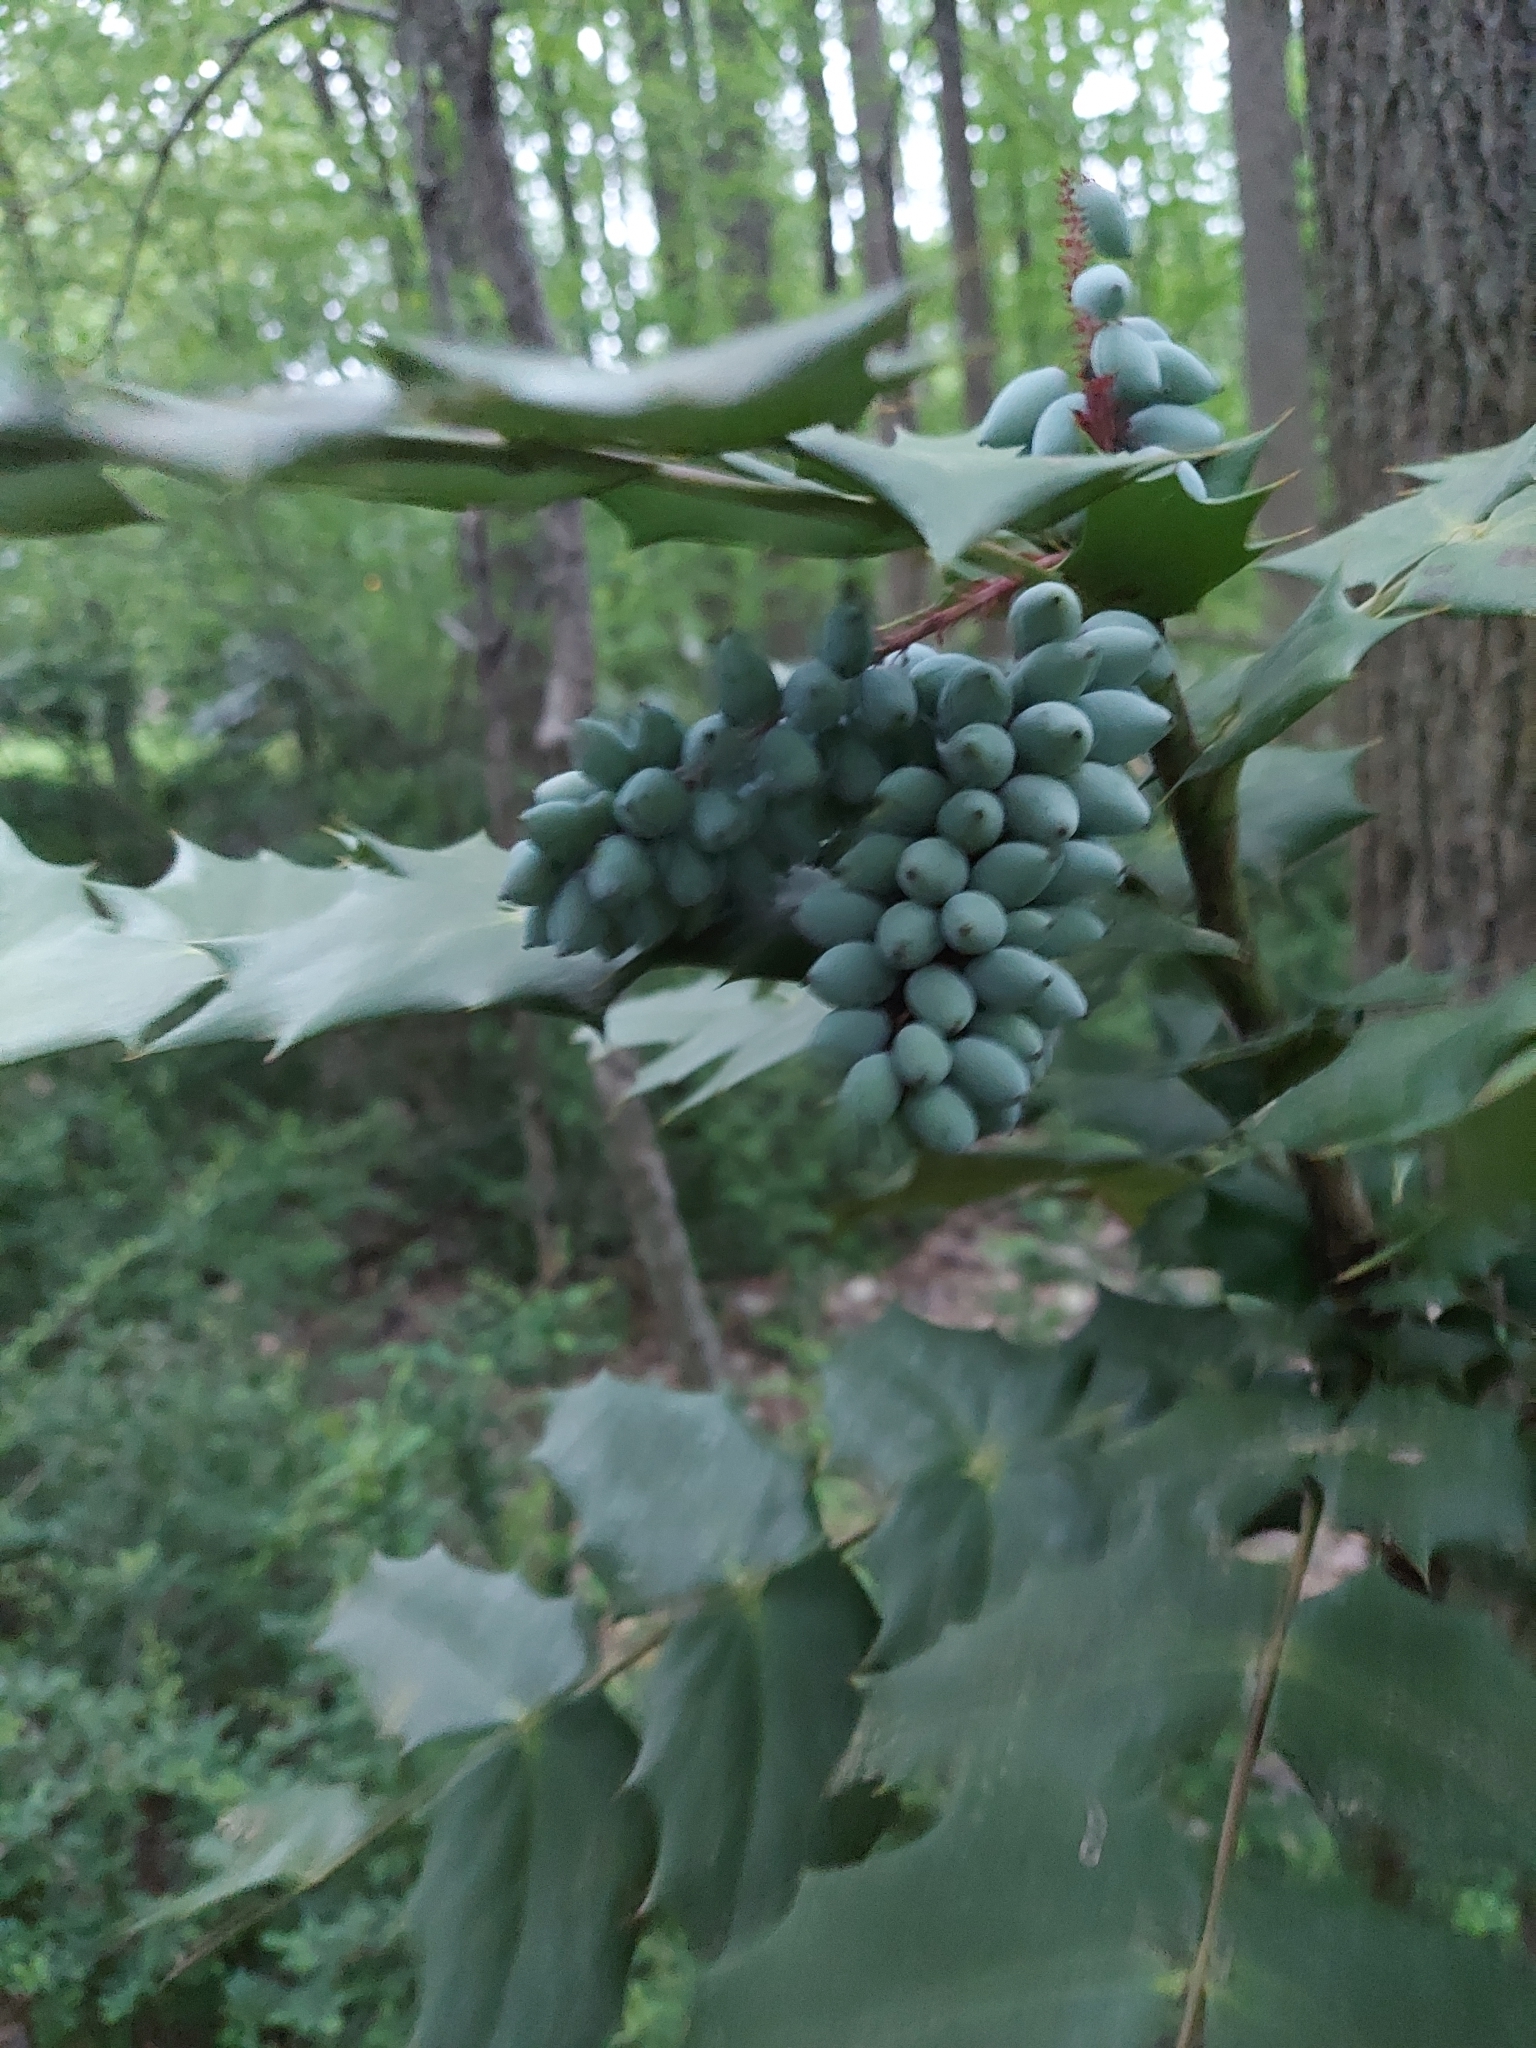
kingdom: Plantae
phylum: Tracheophyta
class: Magnoliopsida
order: Ranunculales
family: Berberidaceae
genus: Mahonia
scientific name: Mahonia bealei
